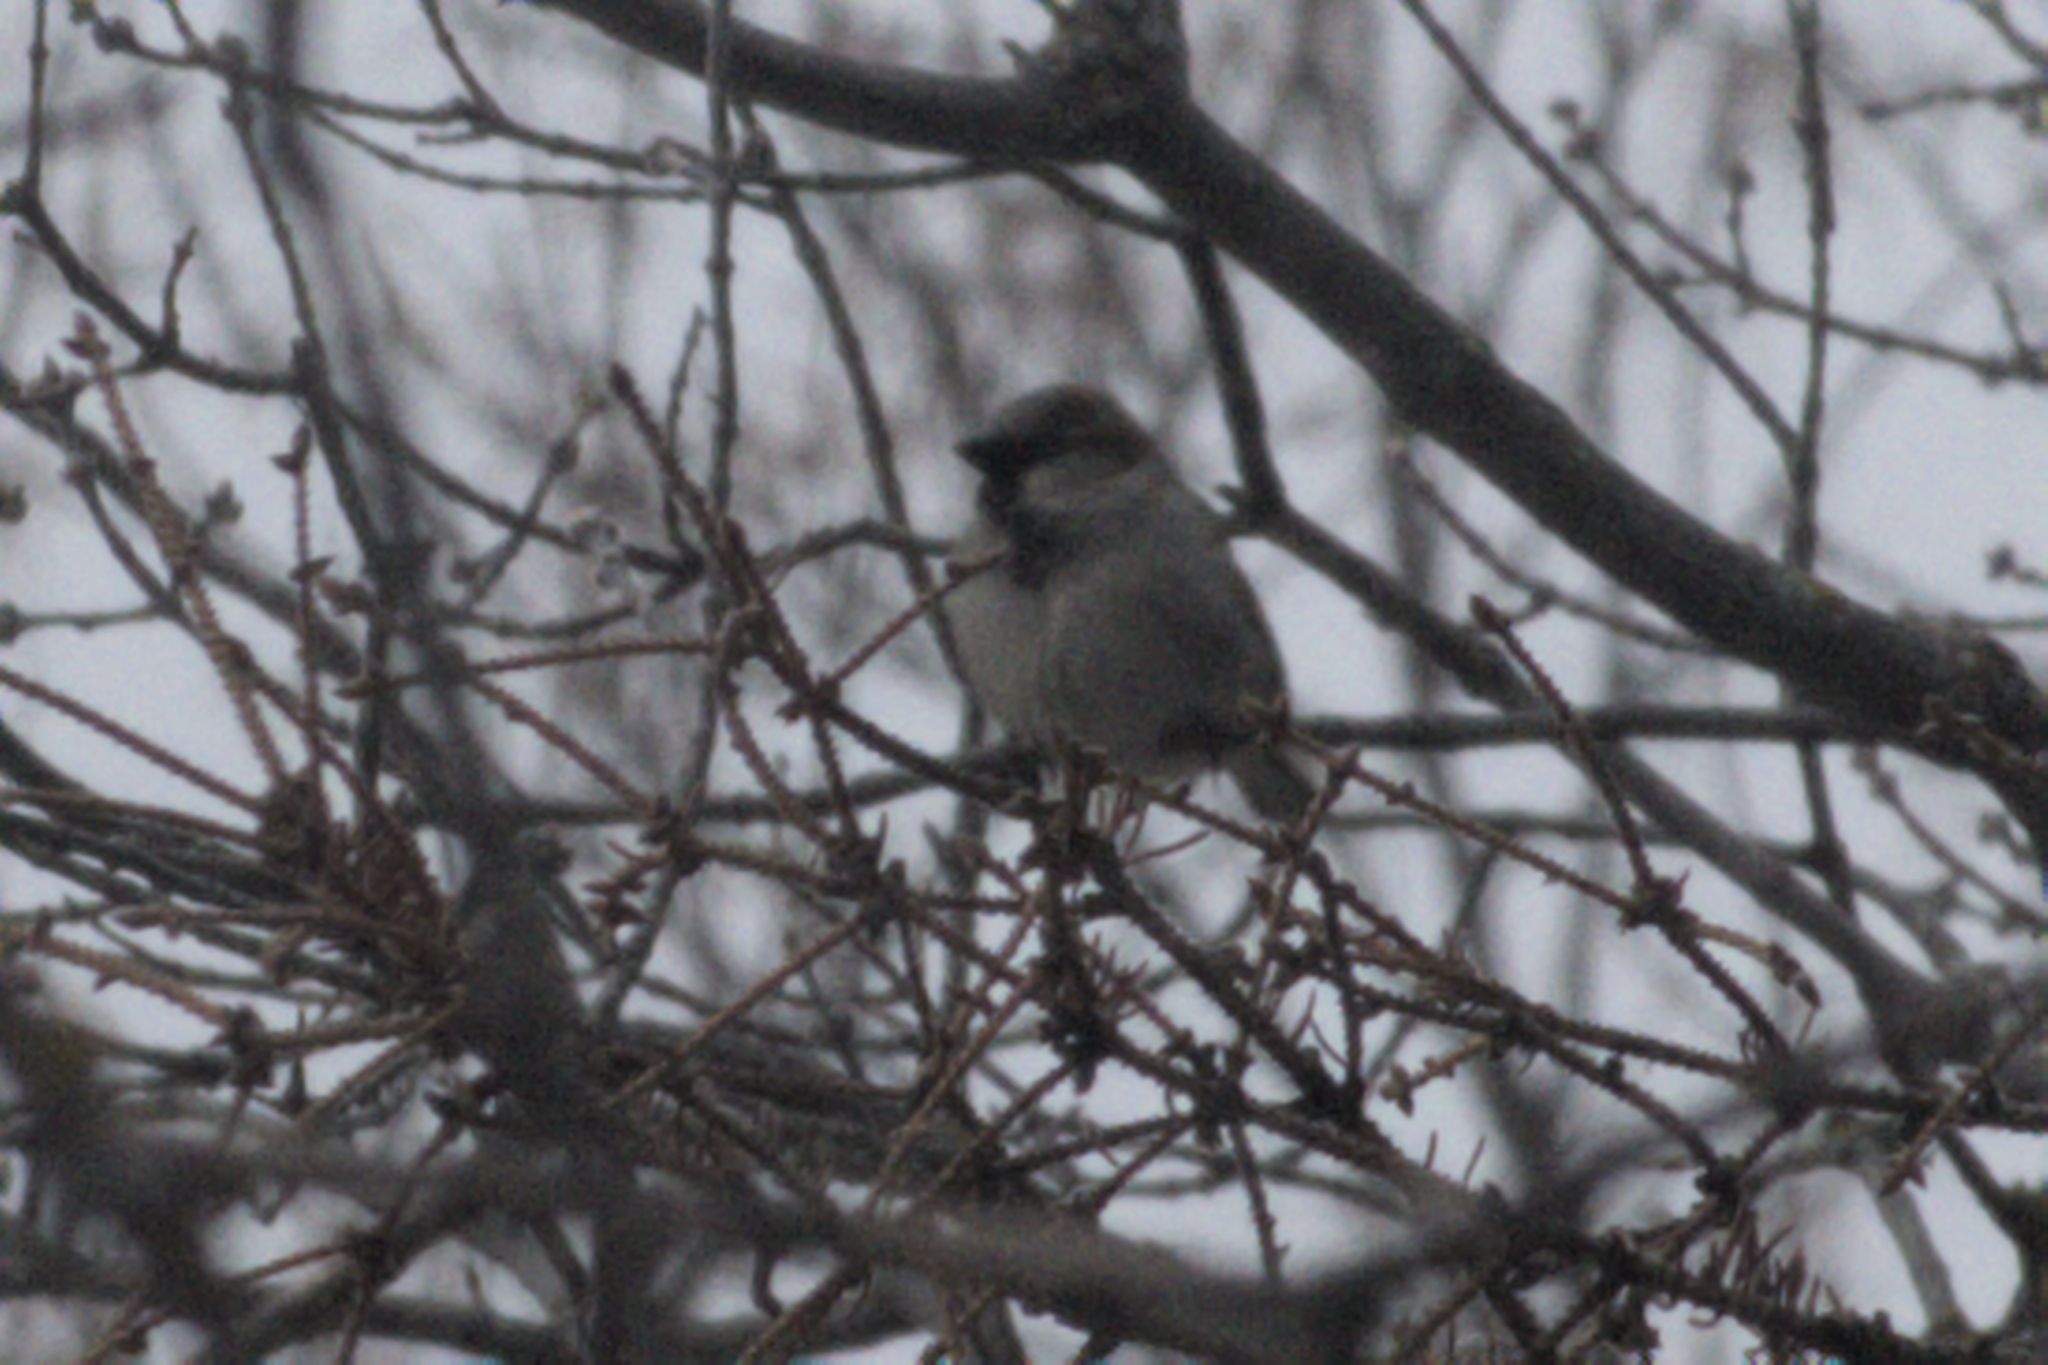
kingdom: Animalia
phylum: Chordata
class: Aves
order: Passeriformes
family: Passeridae
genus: Passer
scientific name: Passer domesticus
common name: House sparrow
